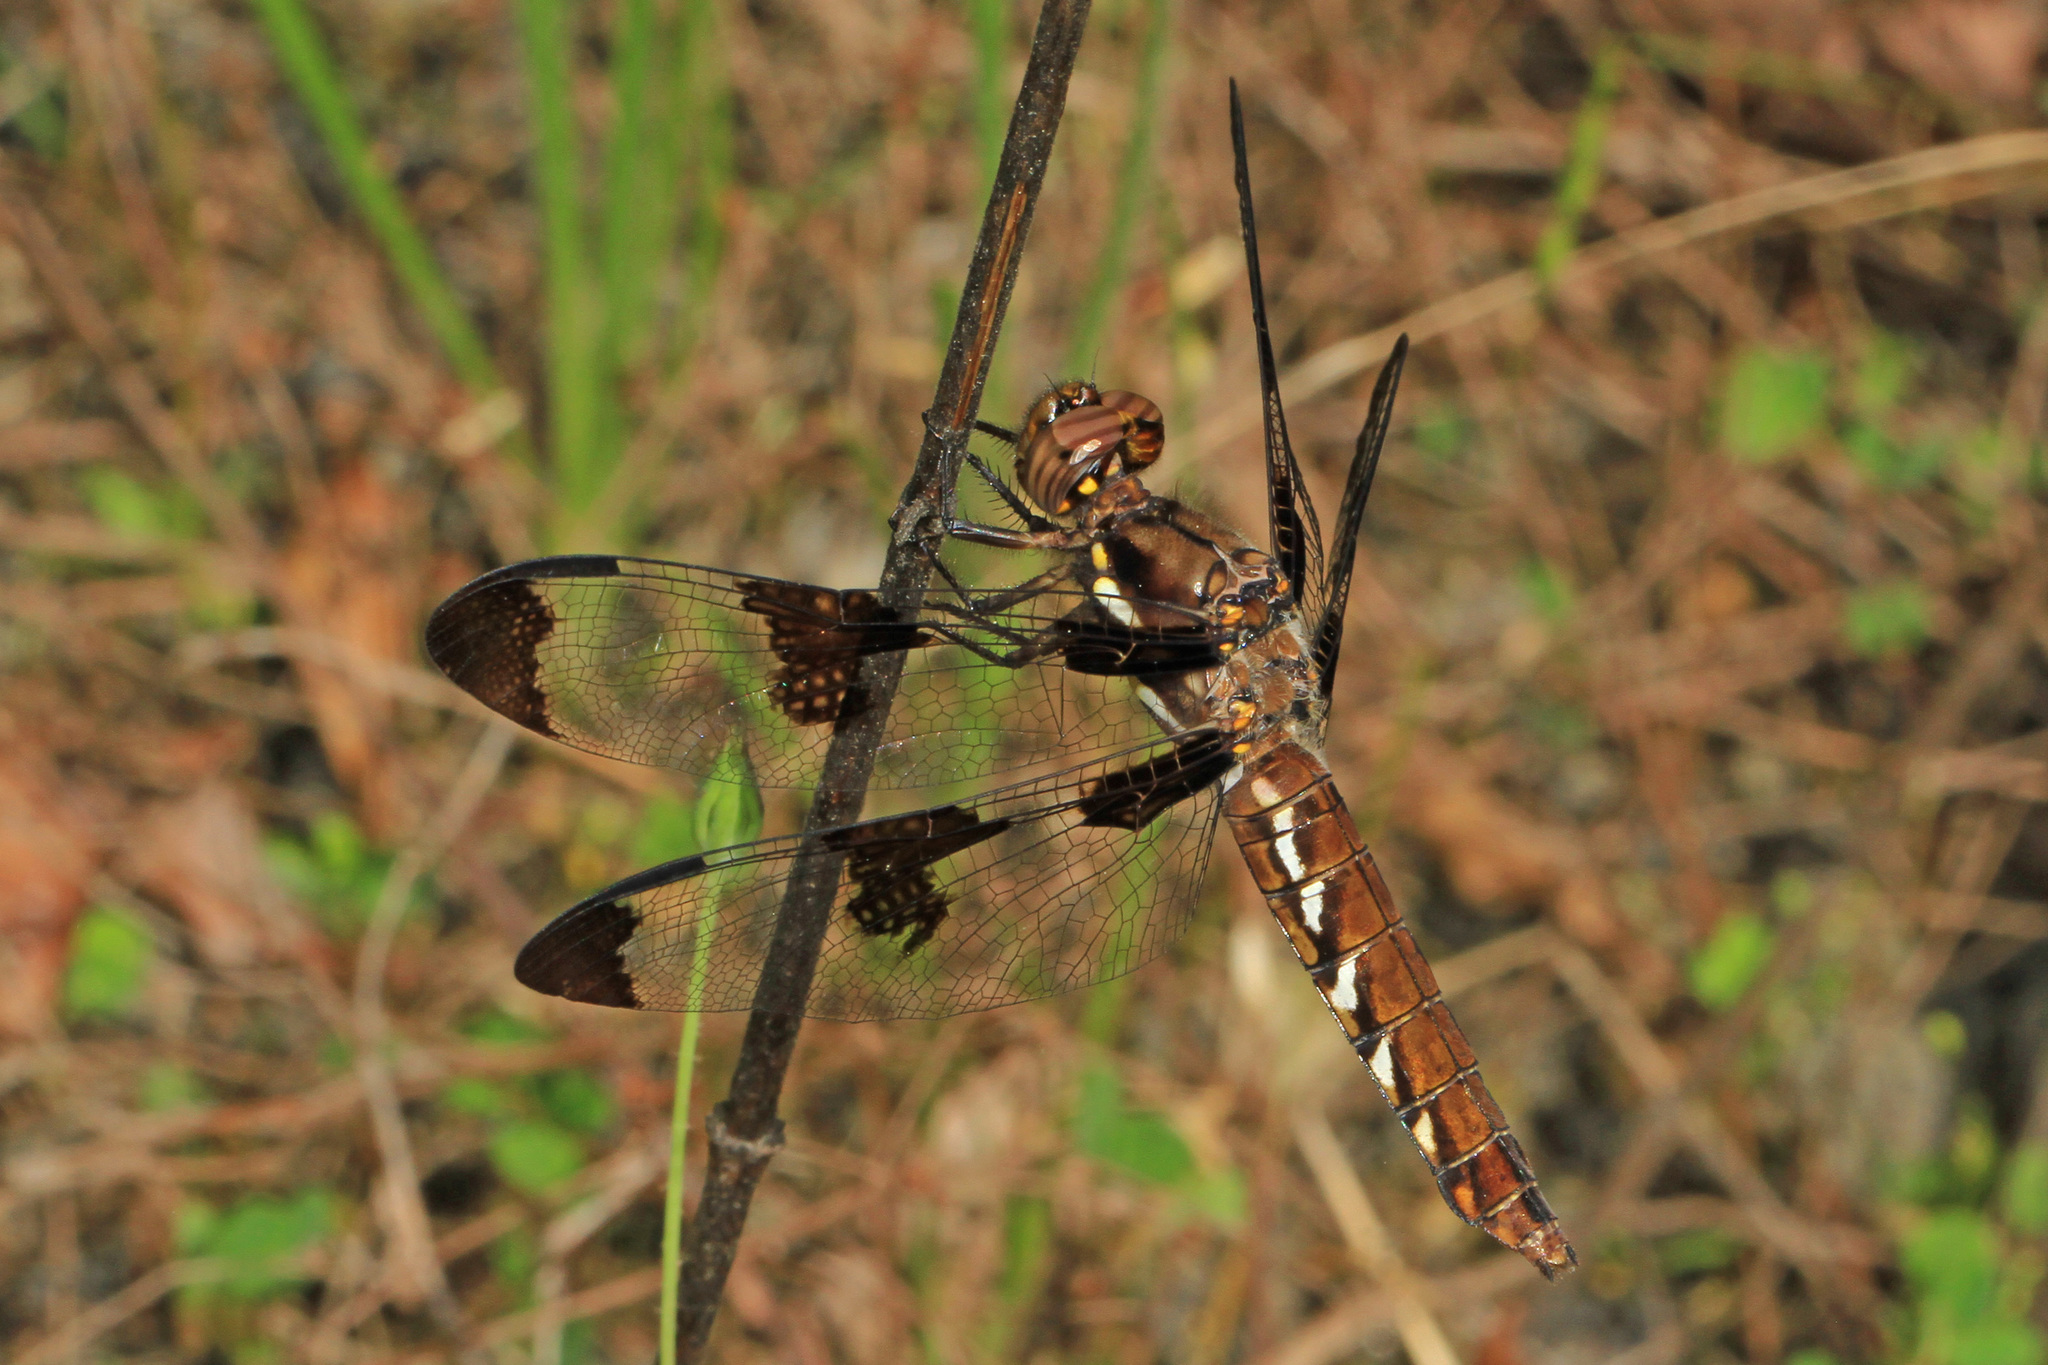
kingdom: Animalia
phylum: Arthropoda
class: Insecta
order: Odonata
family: Libellulidae
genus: Plathemis
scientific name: Plathemis lydia
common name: Common whitetail
